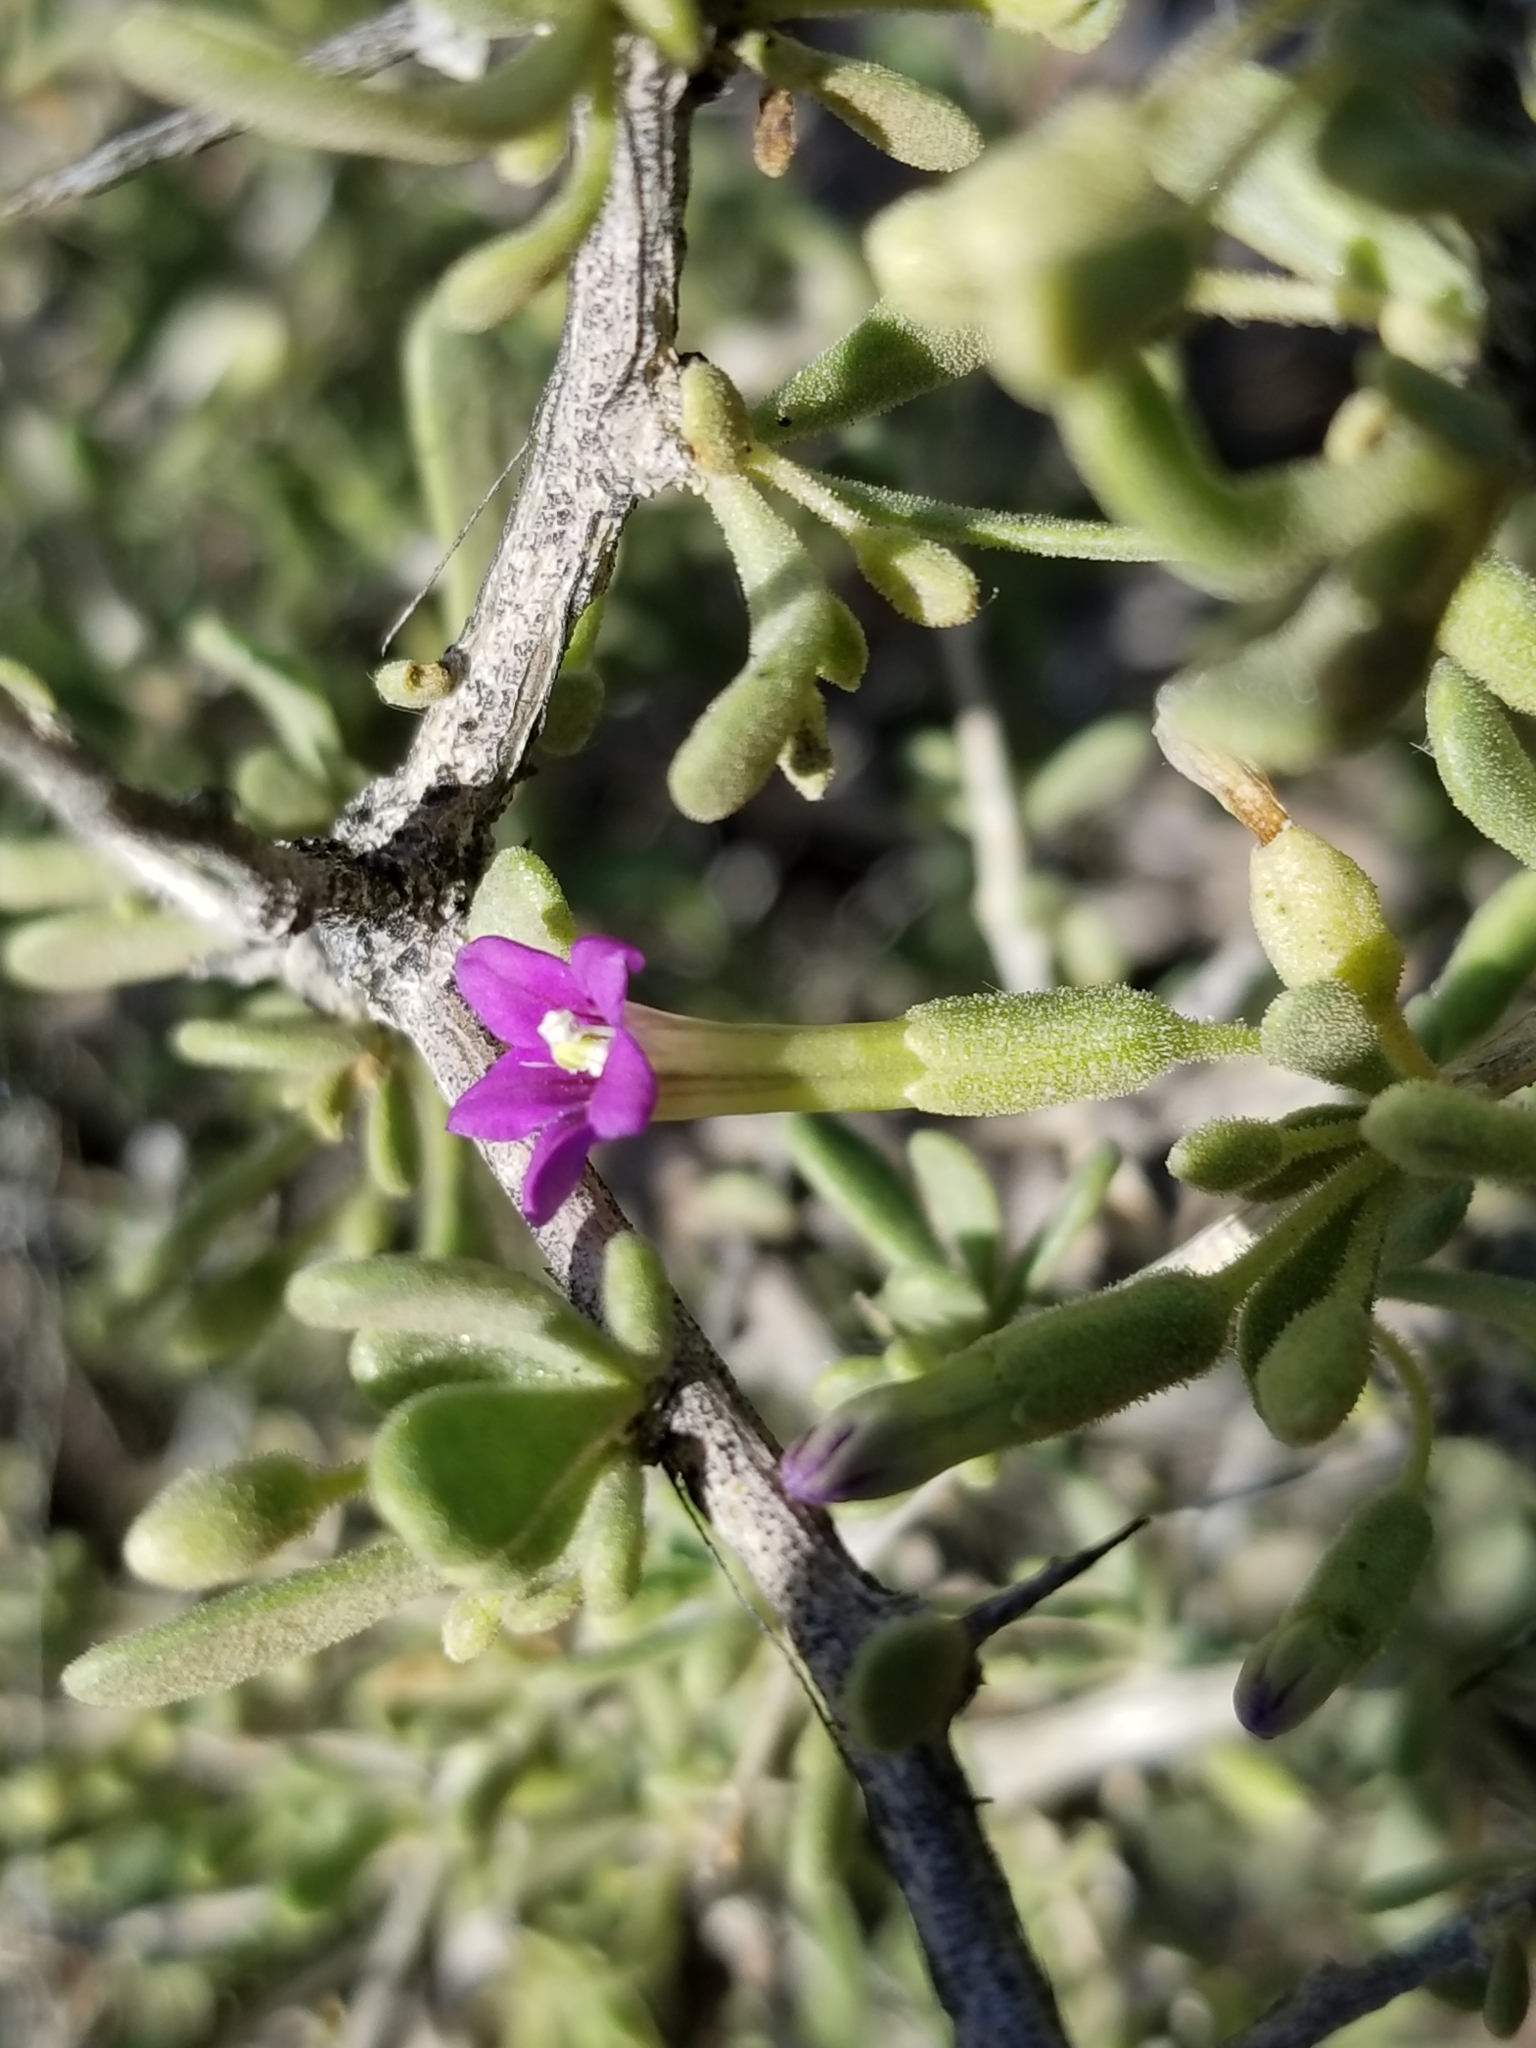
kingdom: Plantae
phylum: Tracheophyta
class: Magnoliopsida
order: Solanales
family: Solanaceae
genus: Lycium
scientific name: Lycium fremontii
